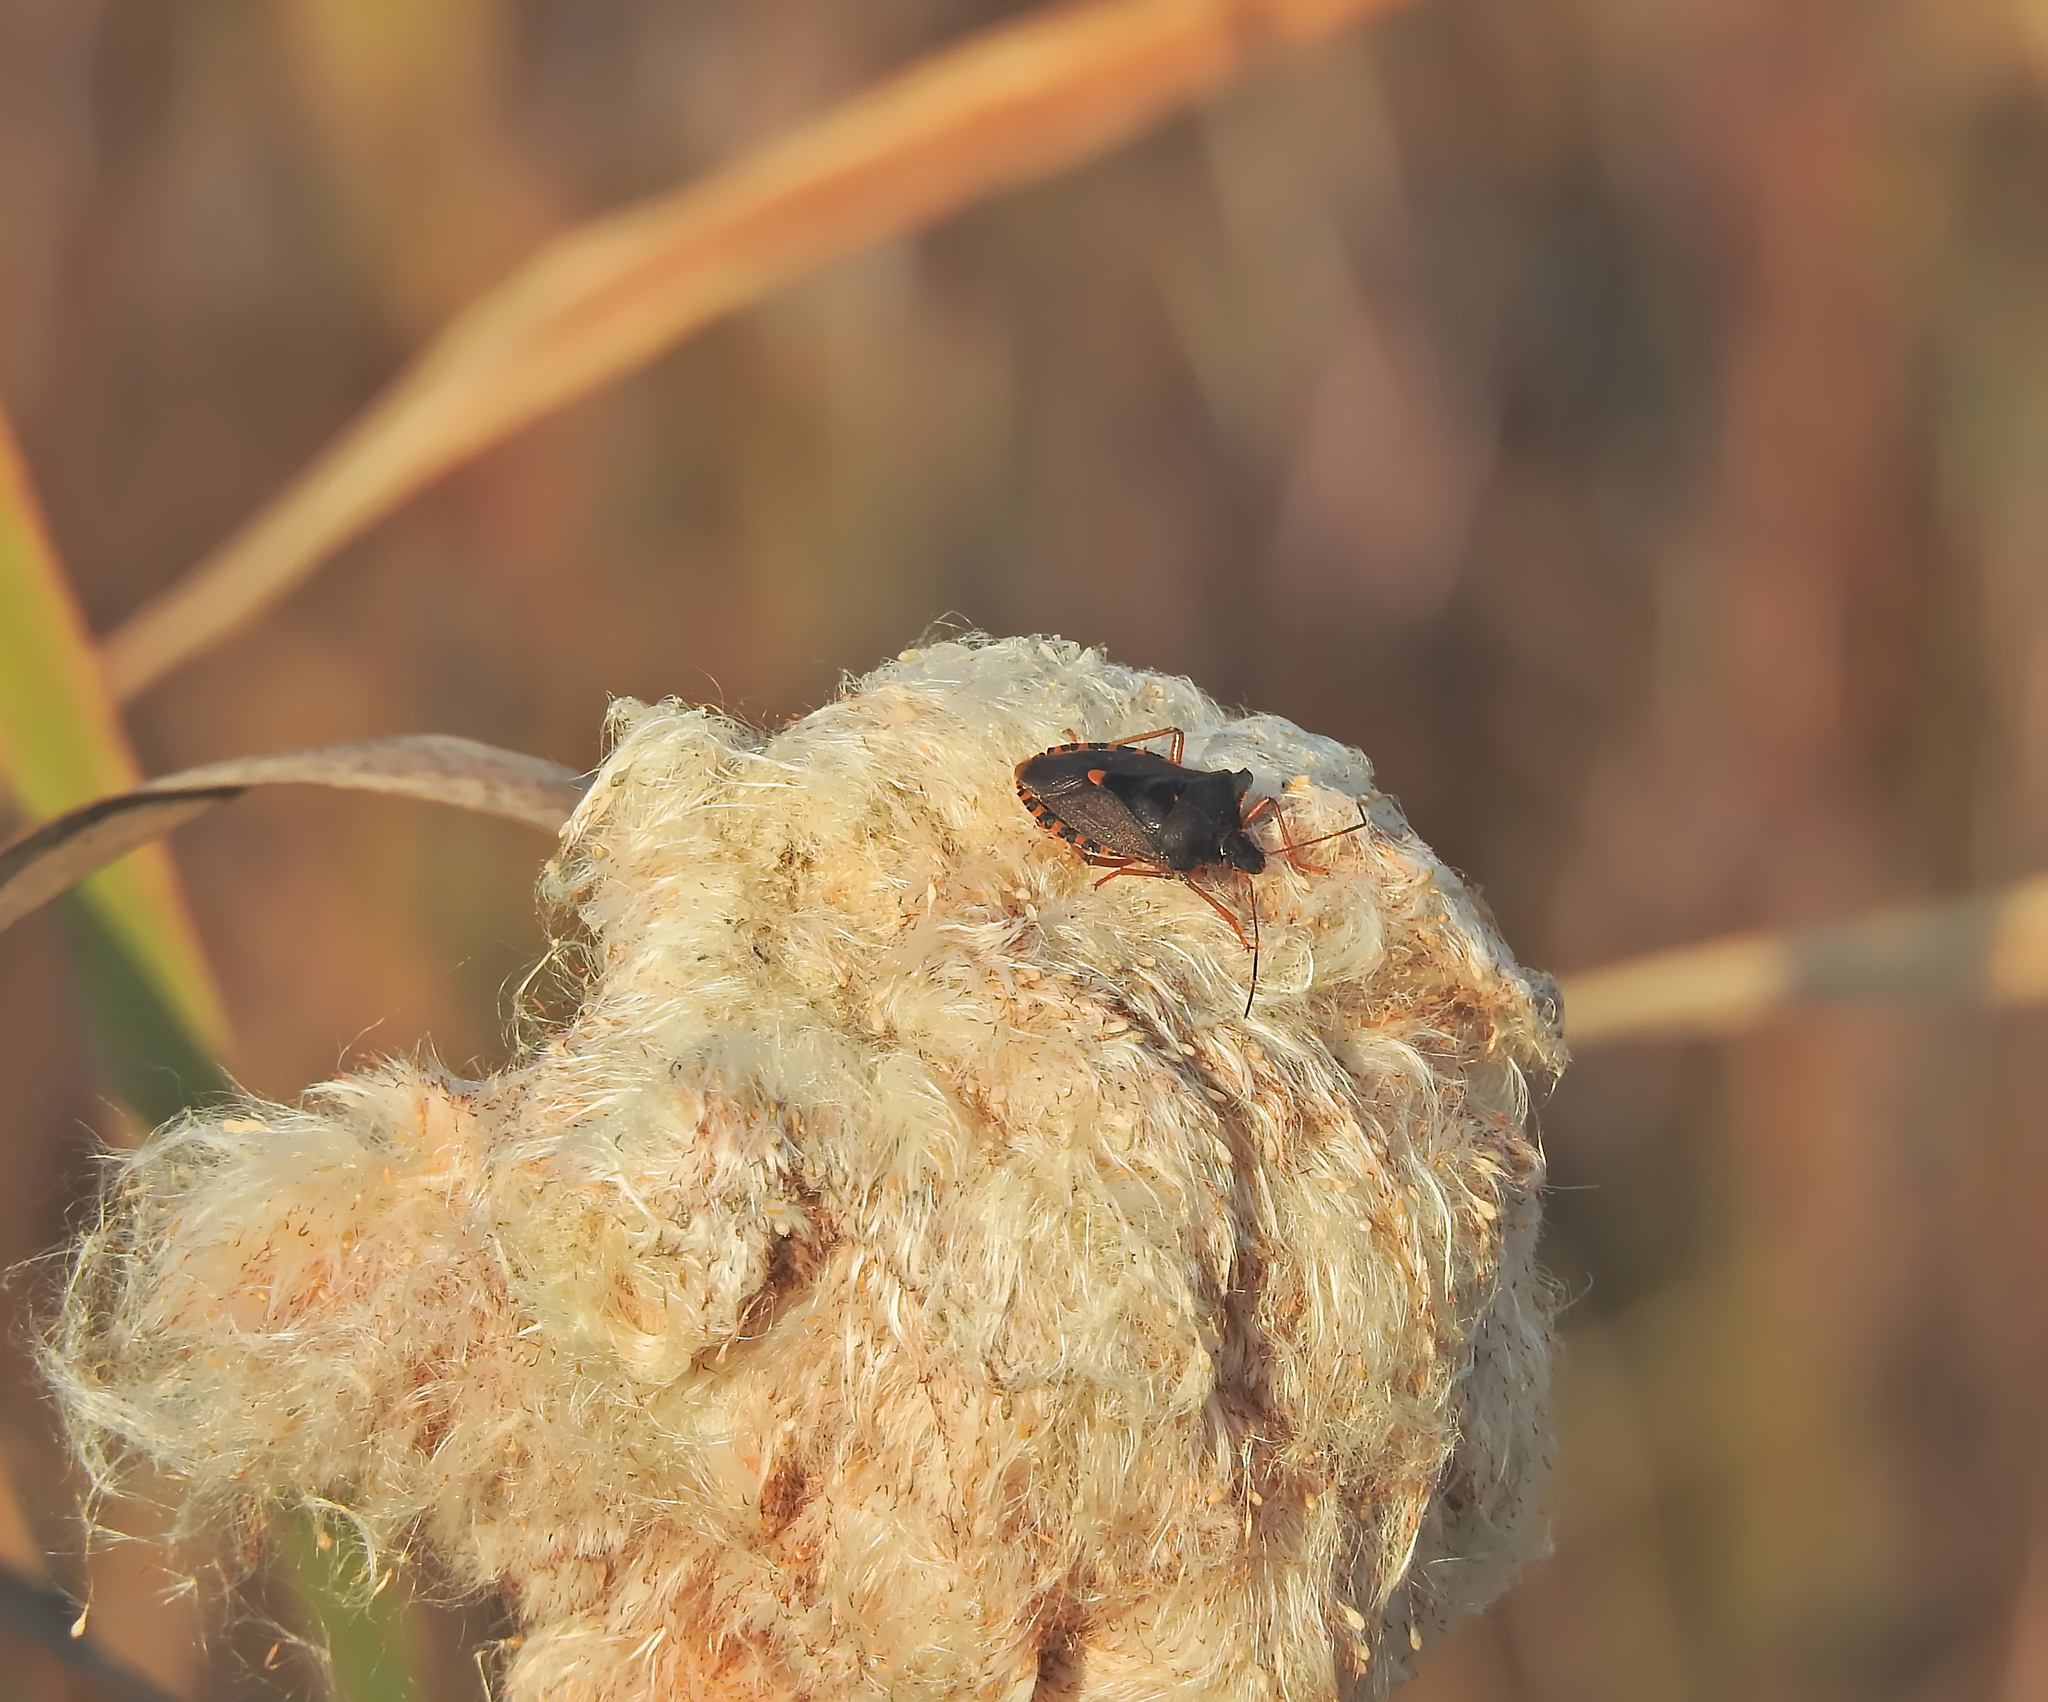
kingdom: Animalia
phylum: Arthropoda
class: Insecta
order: Hemiptera
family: Pentatomidae
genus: Pentatoma
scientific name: Pentatoma rufipes
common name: Forest bug
